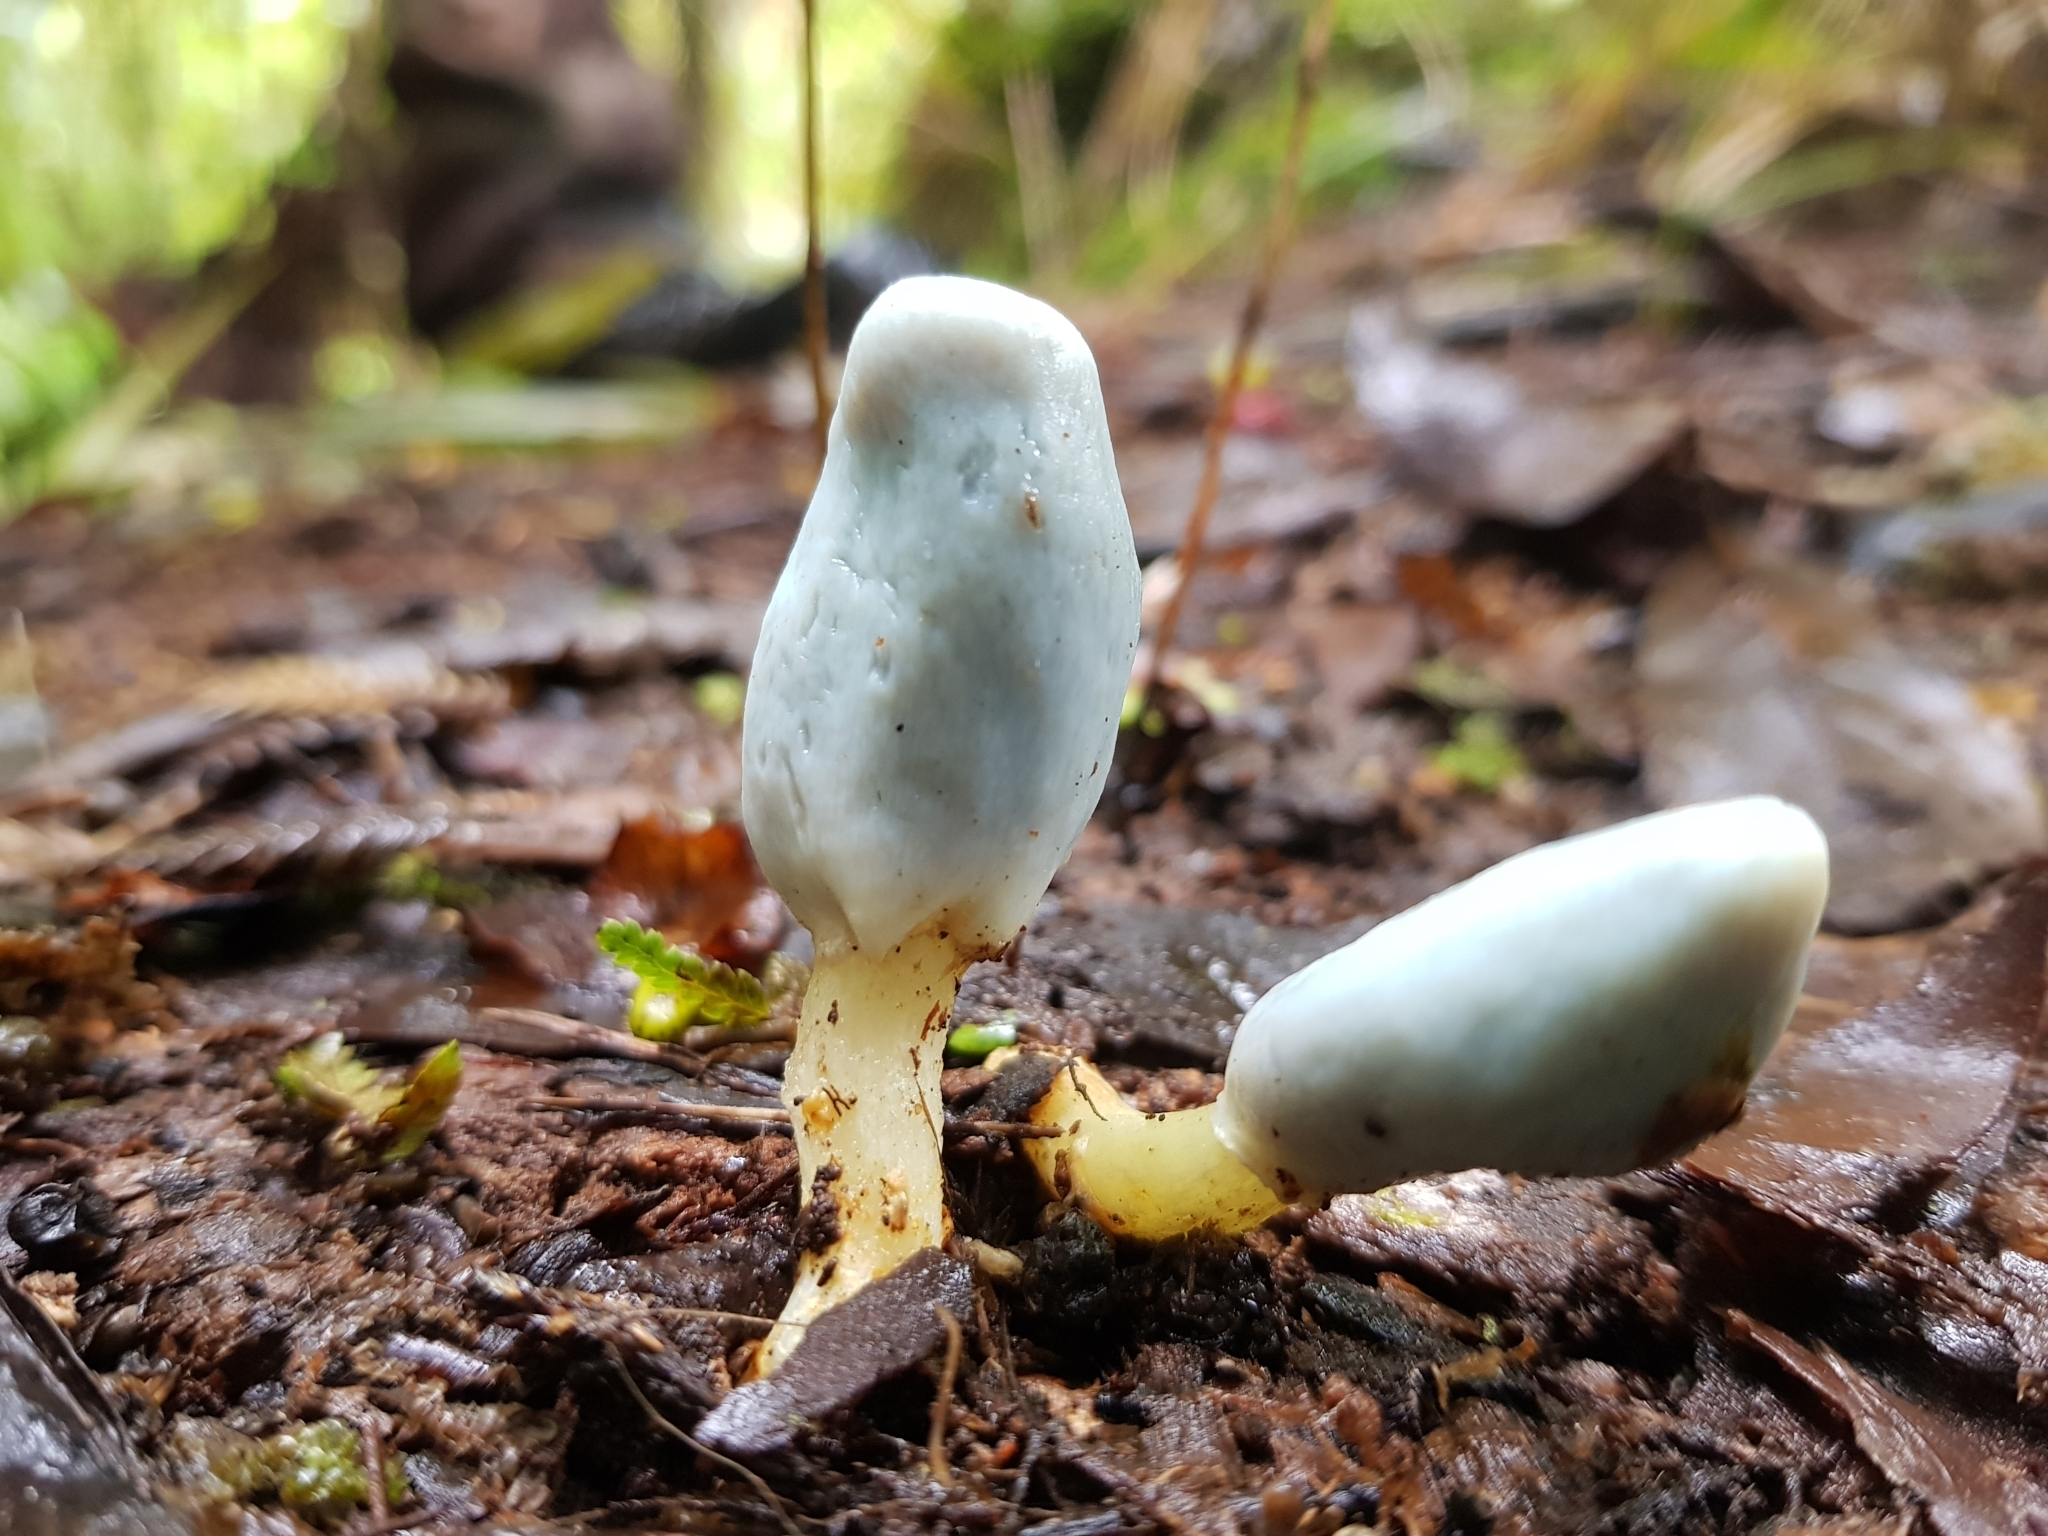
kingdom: Fungi
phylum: Basidiomycota
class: Agaricomycetes
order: Agaricales
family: Agaricaceae
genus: Clavogaster
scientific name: Clavogaster virescens
